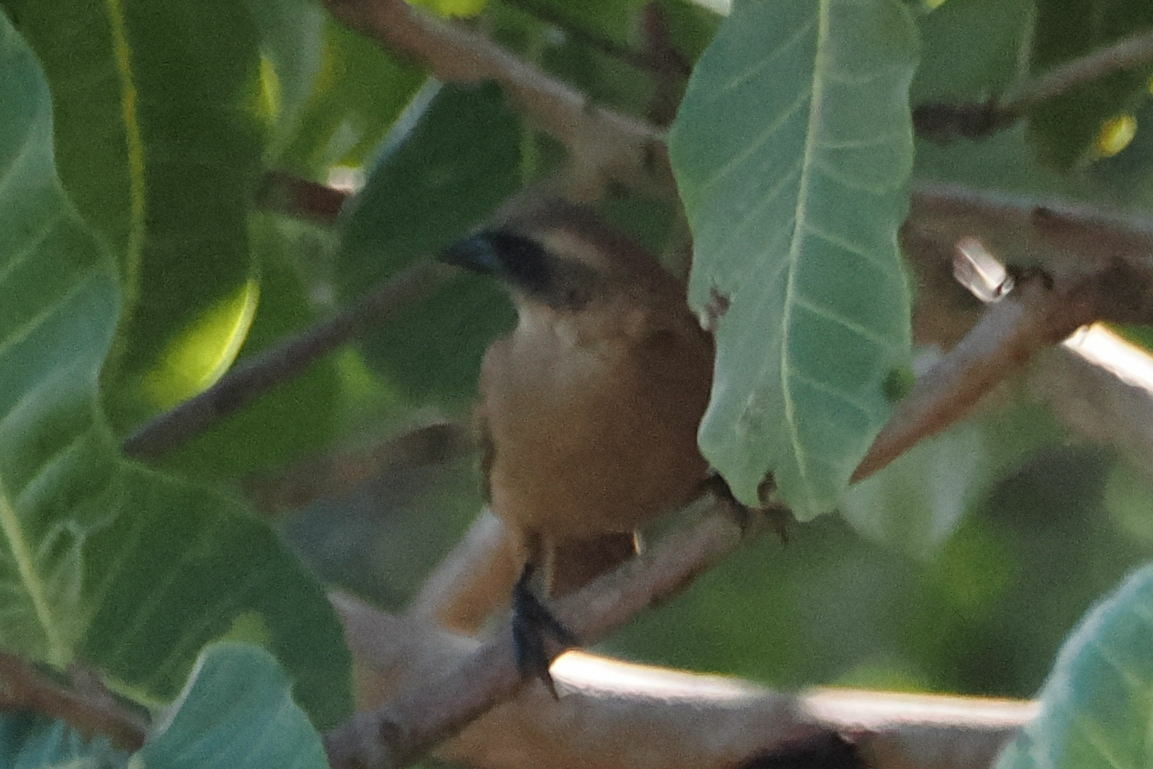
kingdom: Animalia
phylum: Chordata
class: Aves
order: Passeriformes
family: Icteridae
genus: Agelaioides
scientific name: Agelaioides badius
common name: Baywing
